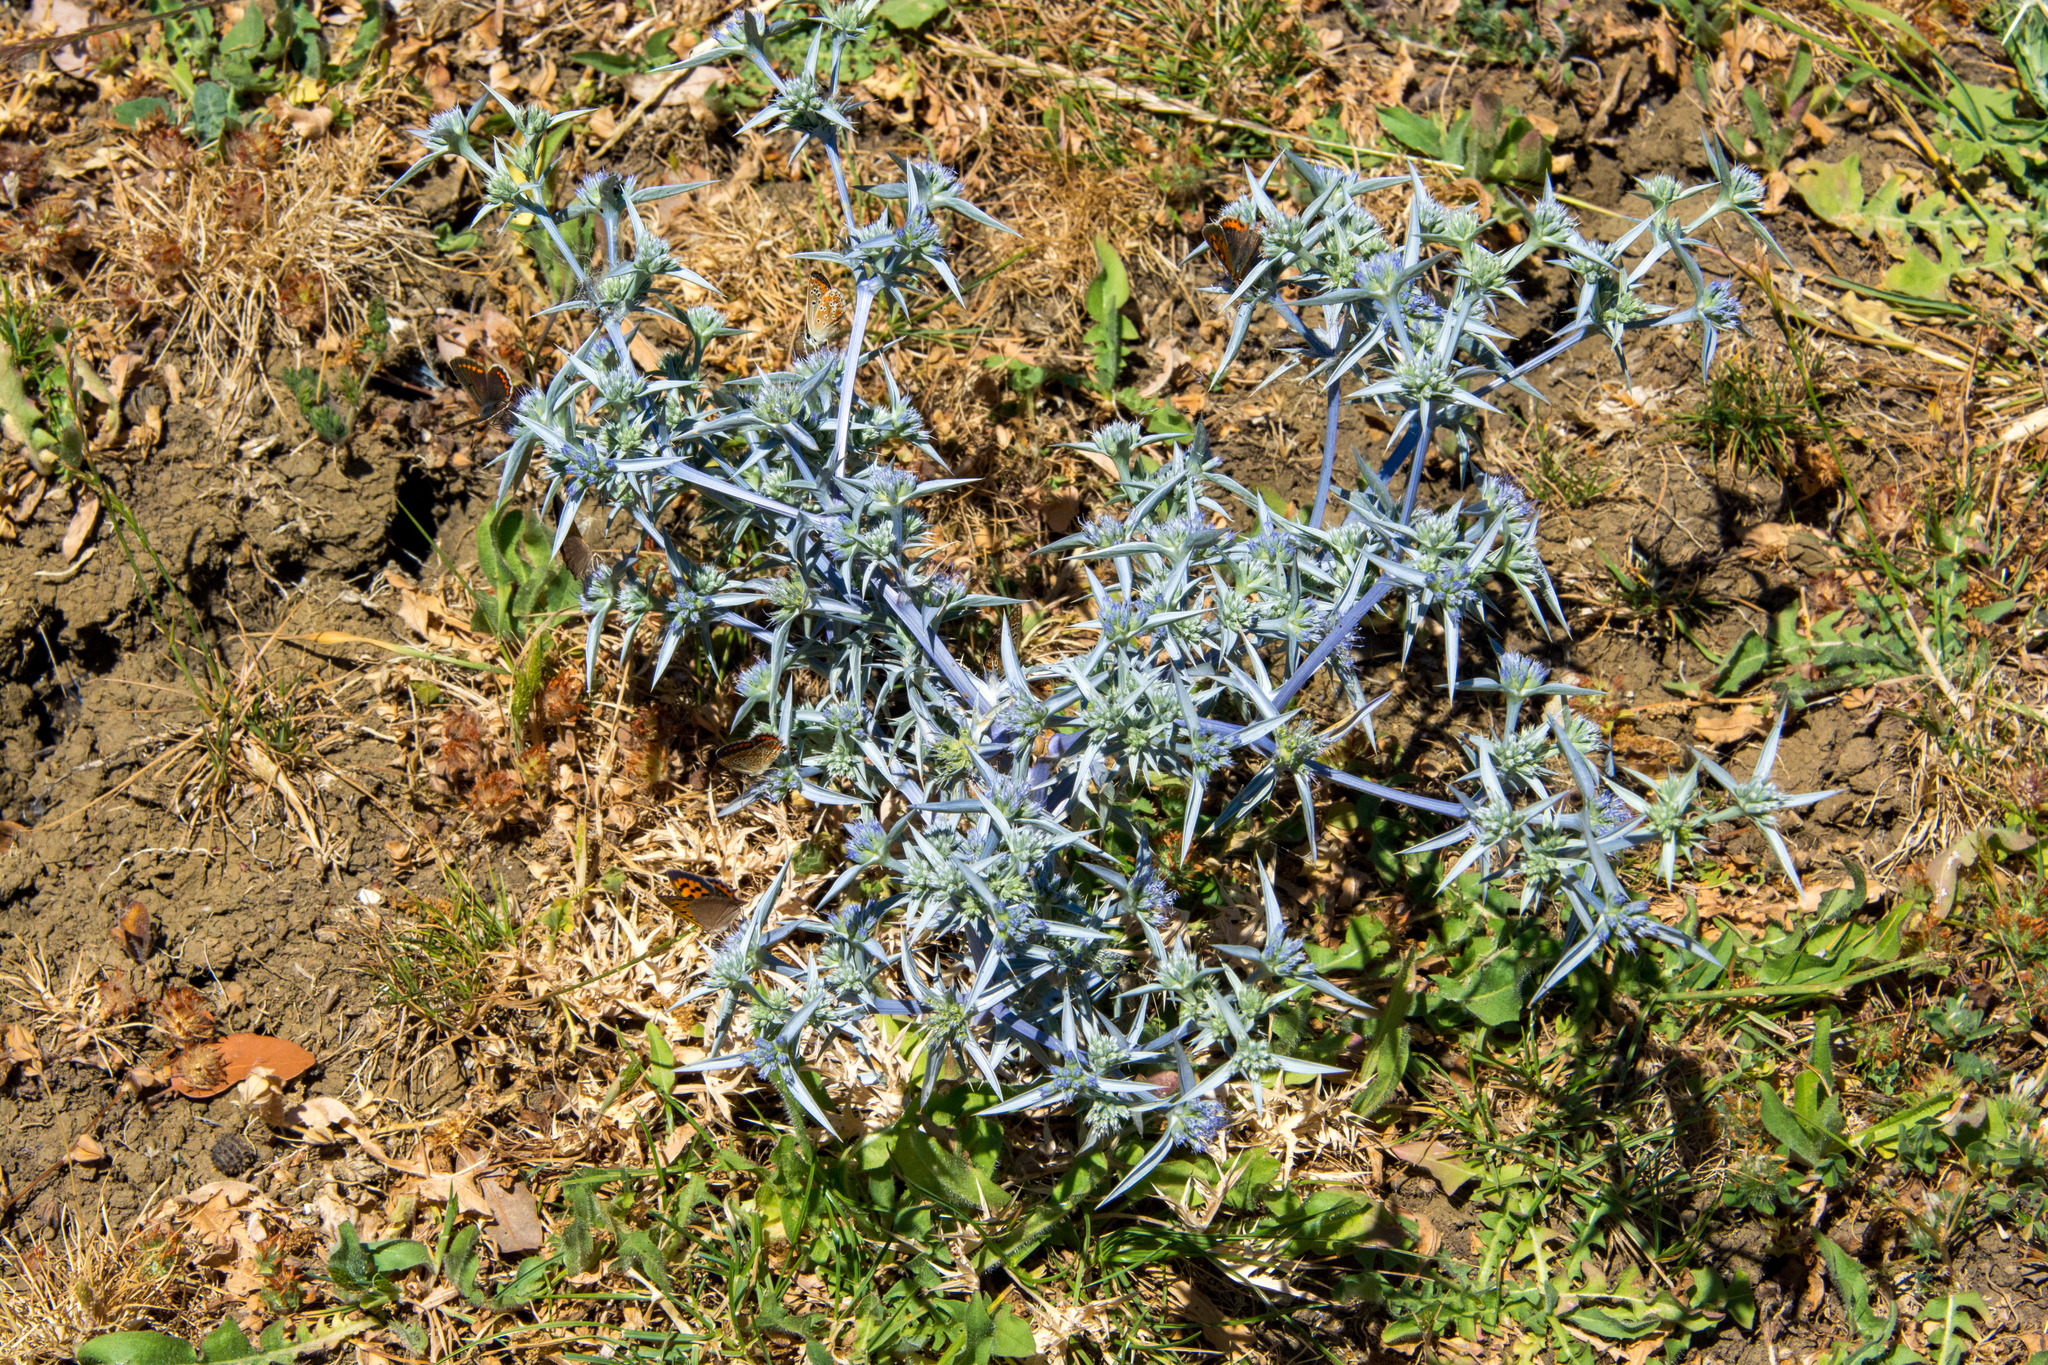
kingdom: Plantae
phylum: Tracheophyta
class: Magnoliopsida
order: Apiales
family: Apiaceae
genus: Eryngium
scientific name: Eryngium triquetrum
